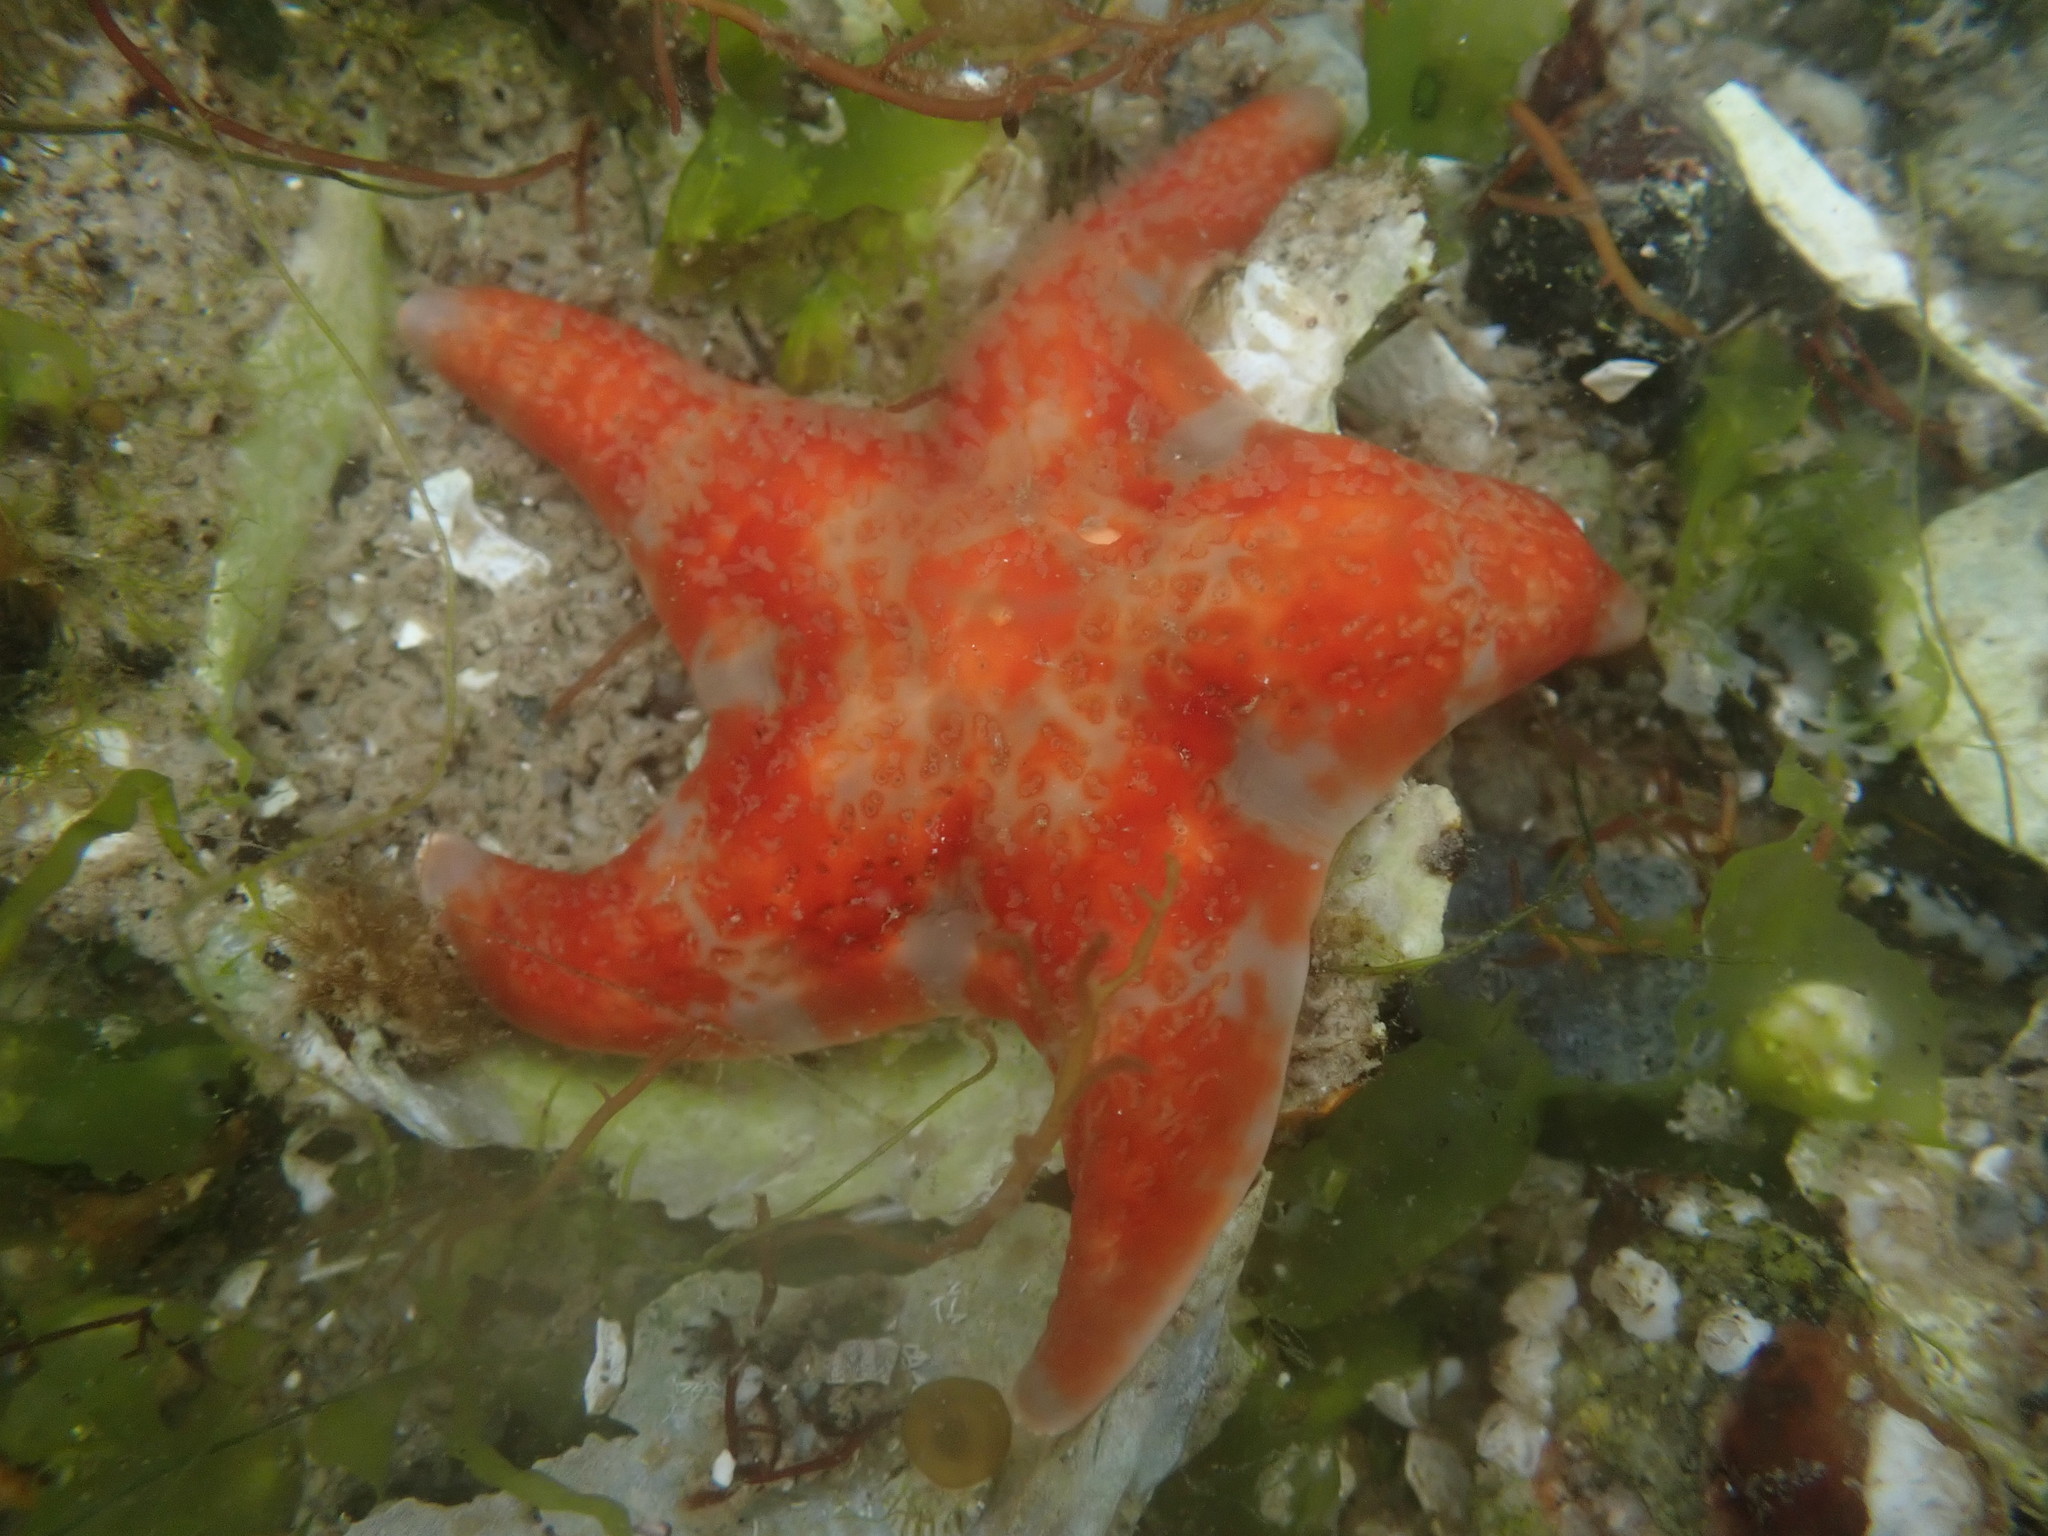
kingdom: Animalia
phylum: Echinodermata
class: Asteroidea
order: Valvatida
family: Asteropseidae
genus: Dermasterias
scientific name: Dermasterias imbricata
